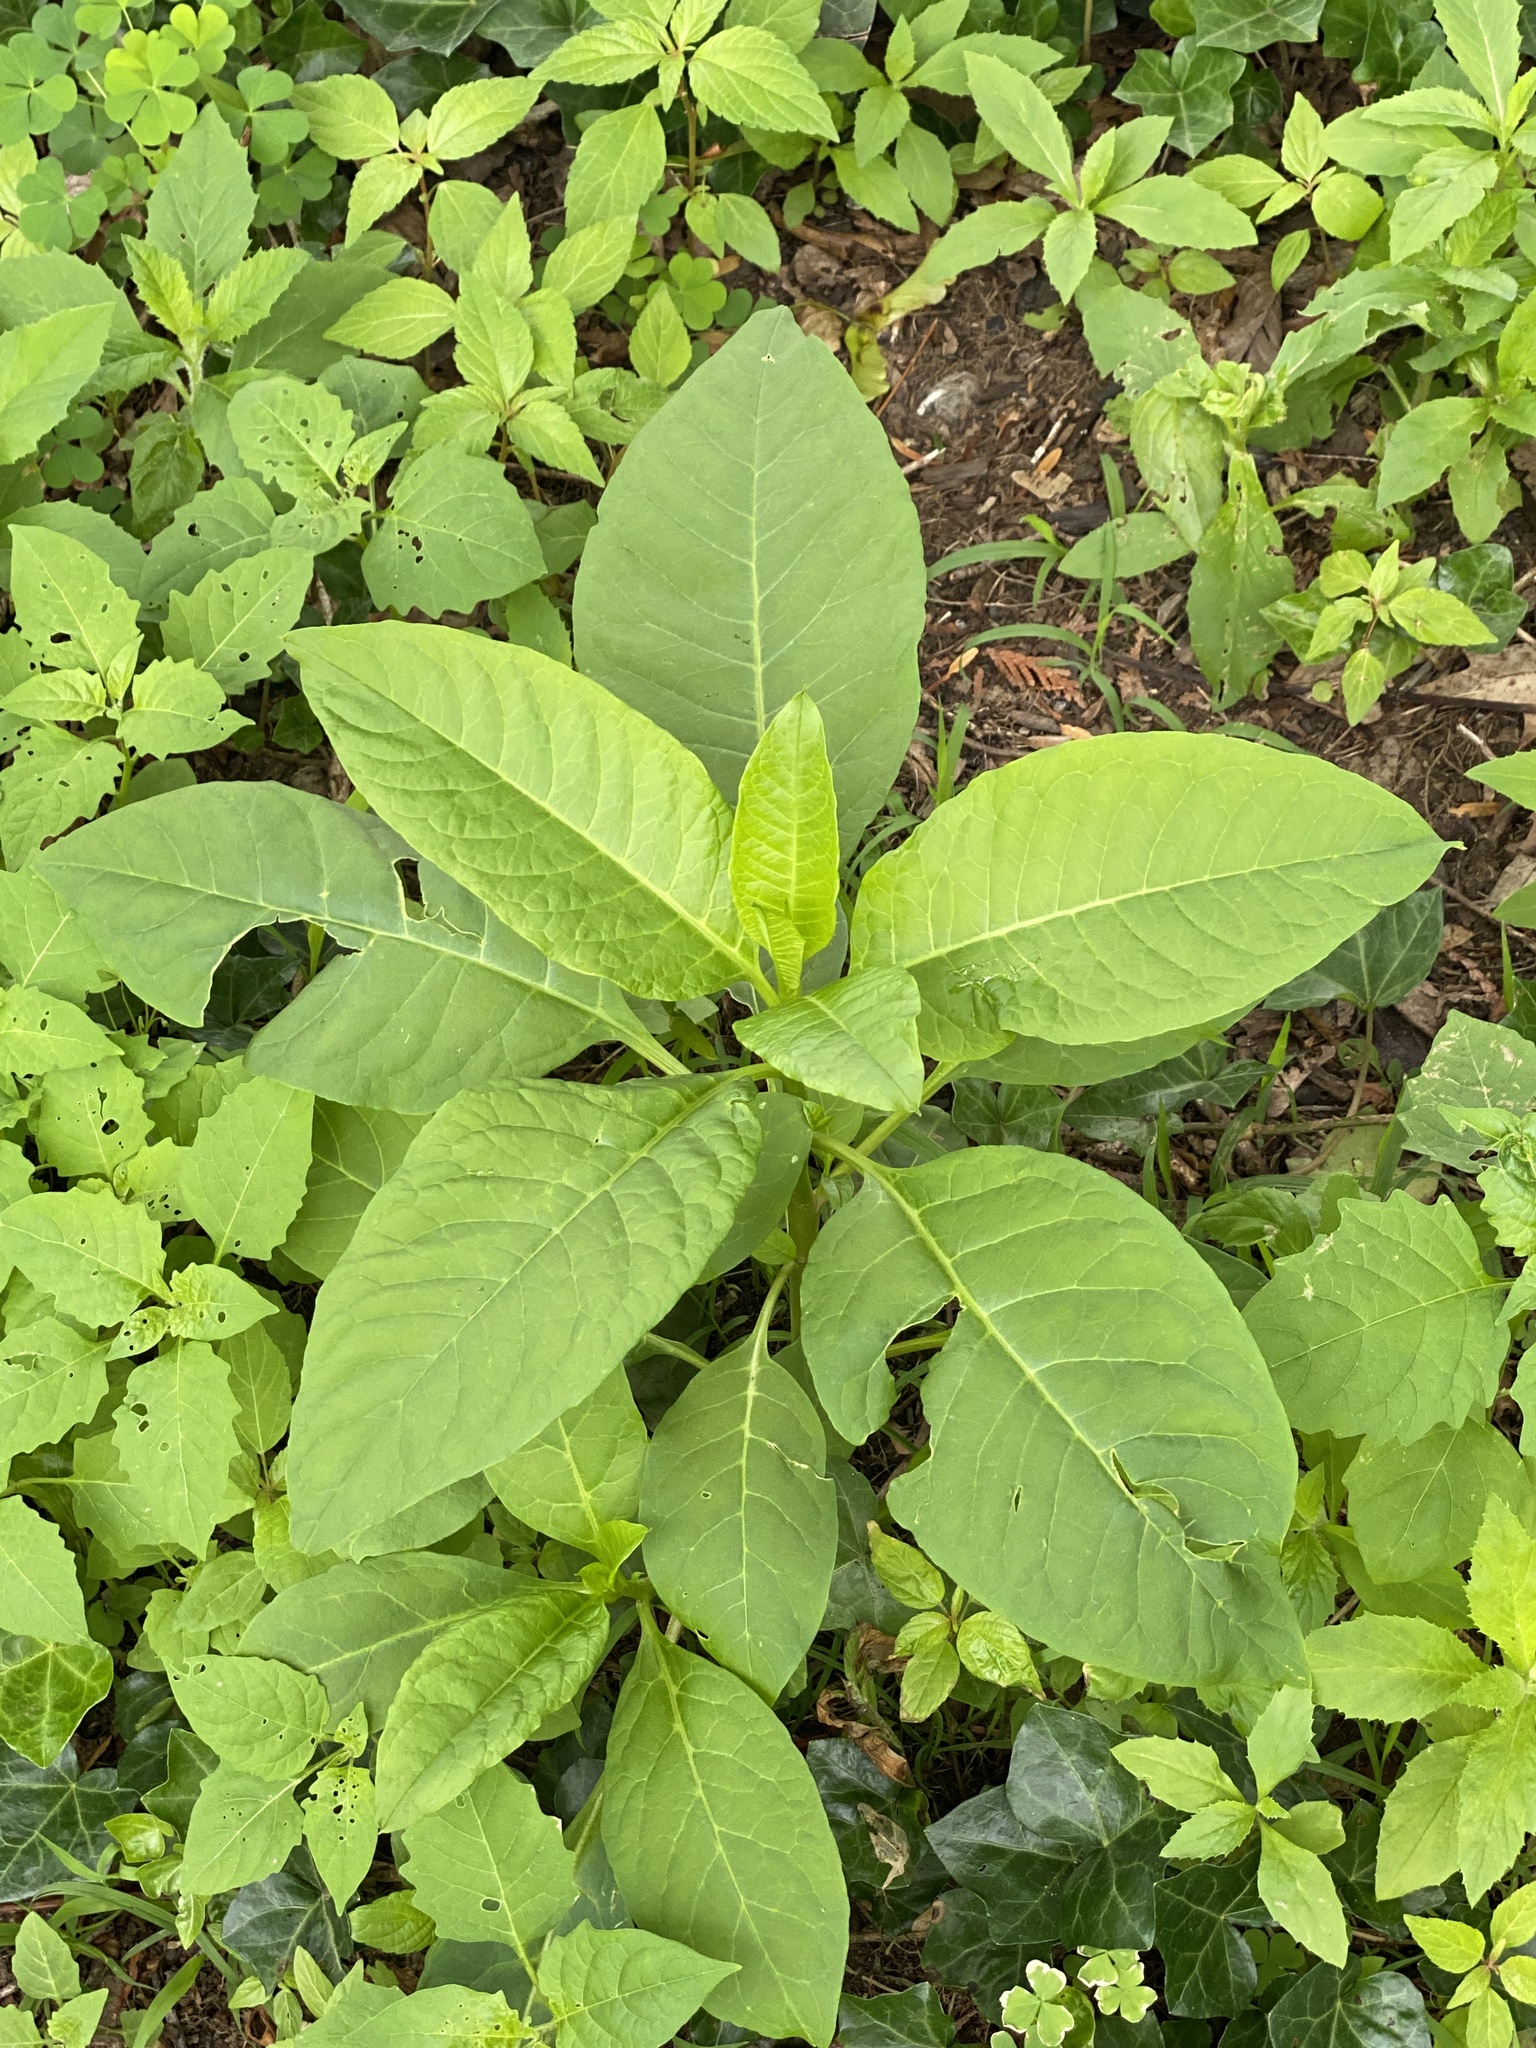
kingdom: Plantae
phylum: Tracheophyta
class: Magnoliopsida
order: Caryophyllales
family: Phytolaccaceae
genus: Phytolacca
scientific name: Phytolacca americana
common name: American pokeweed
